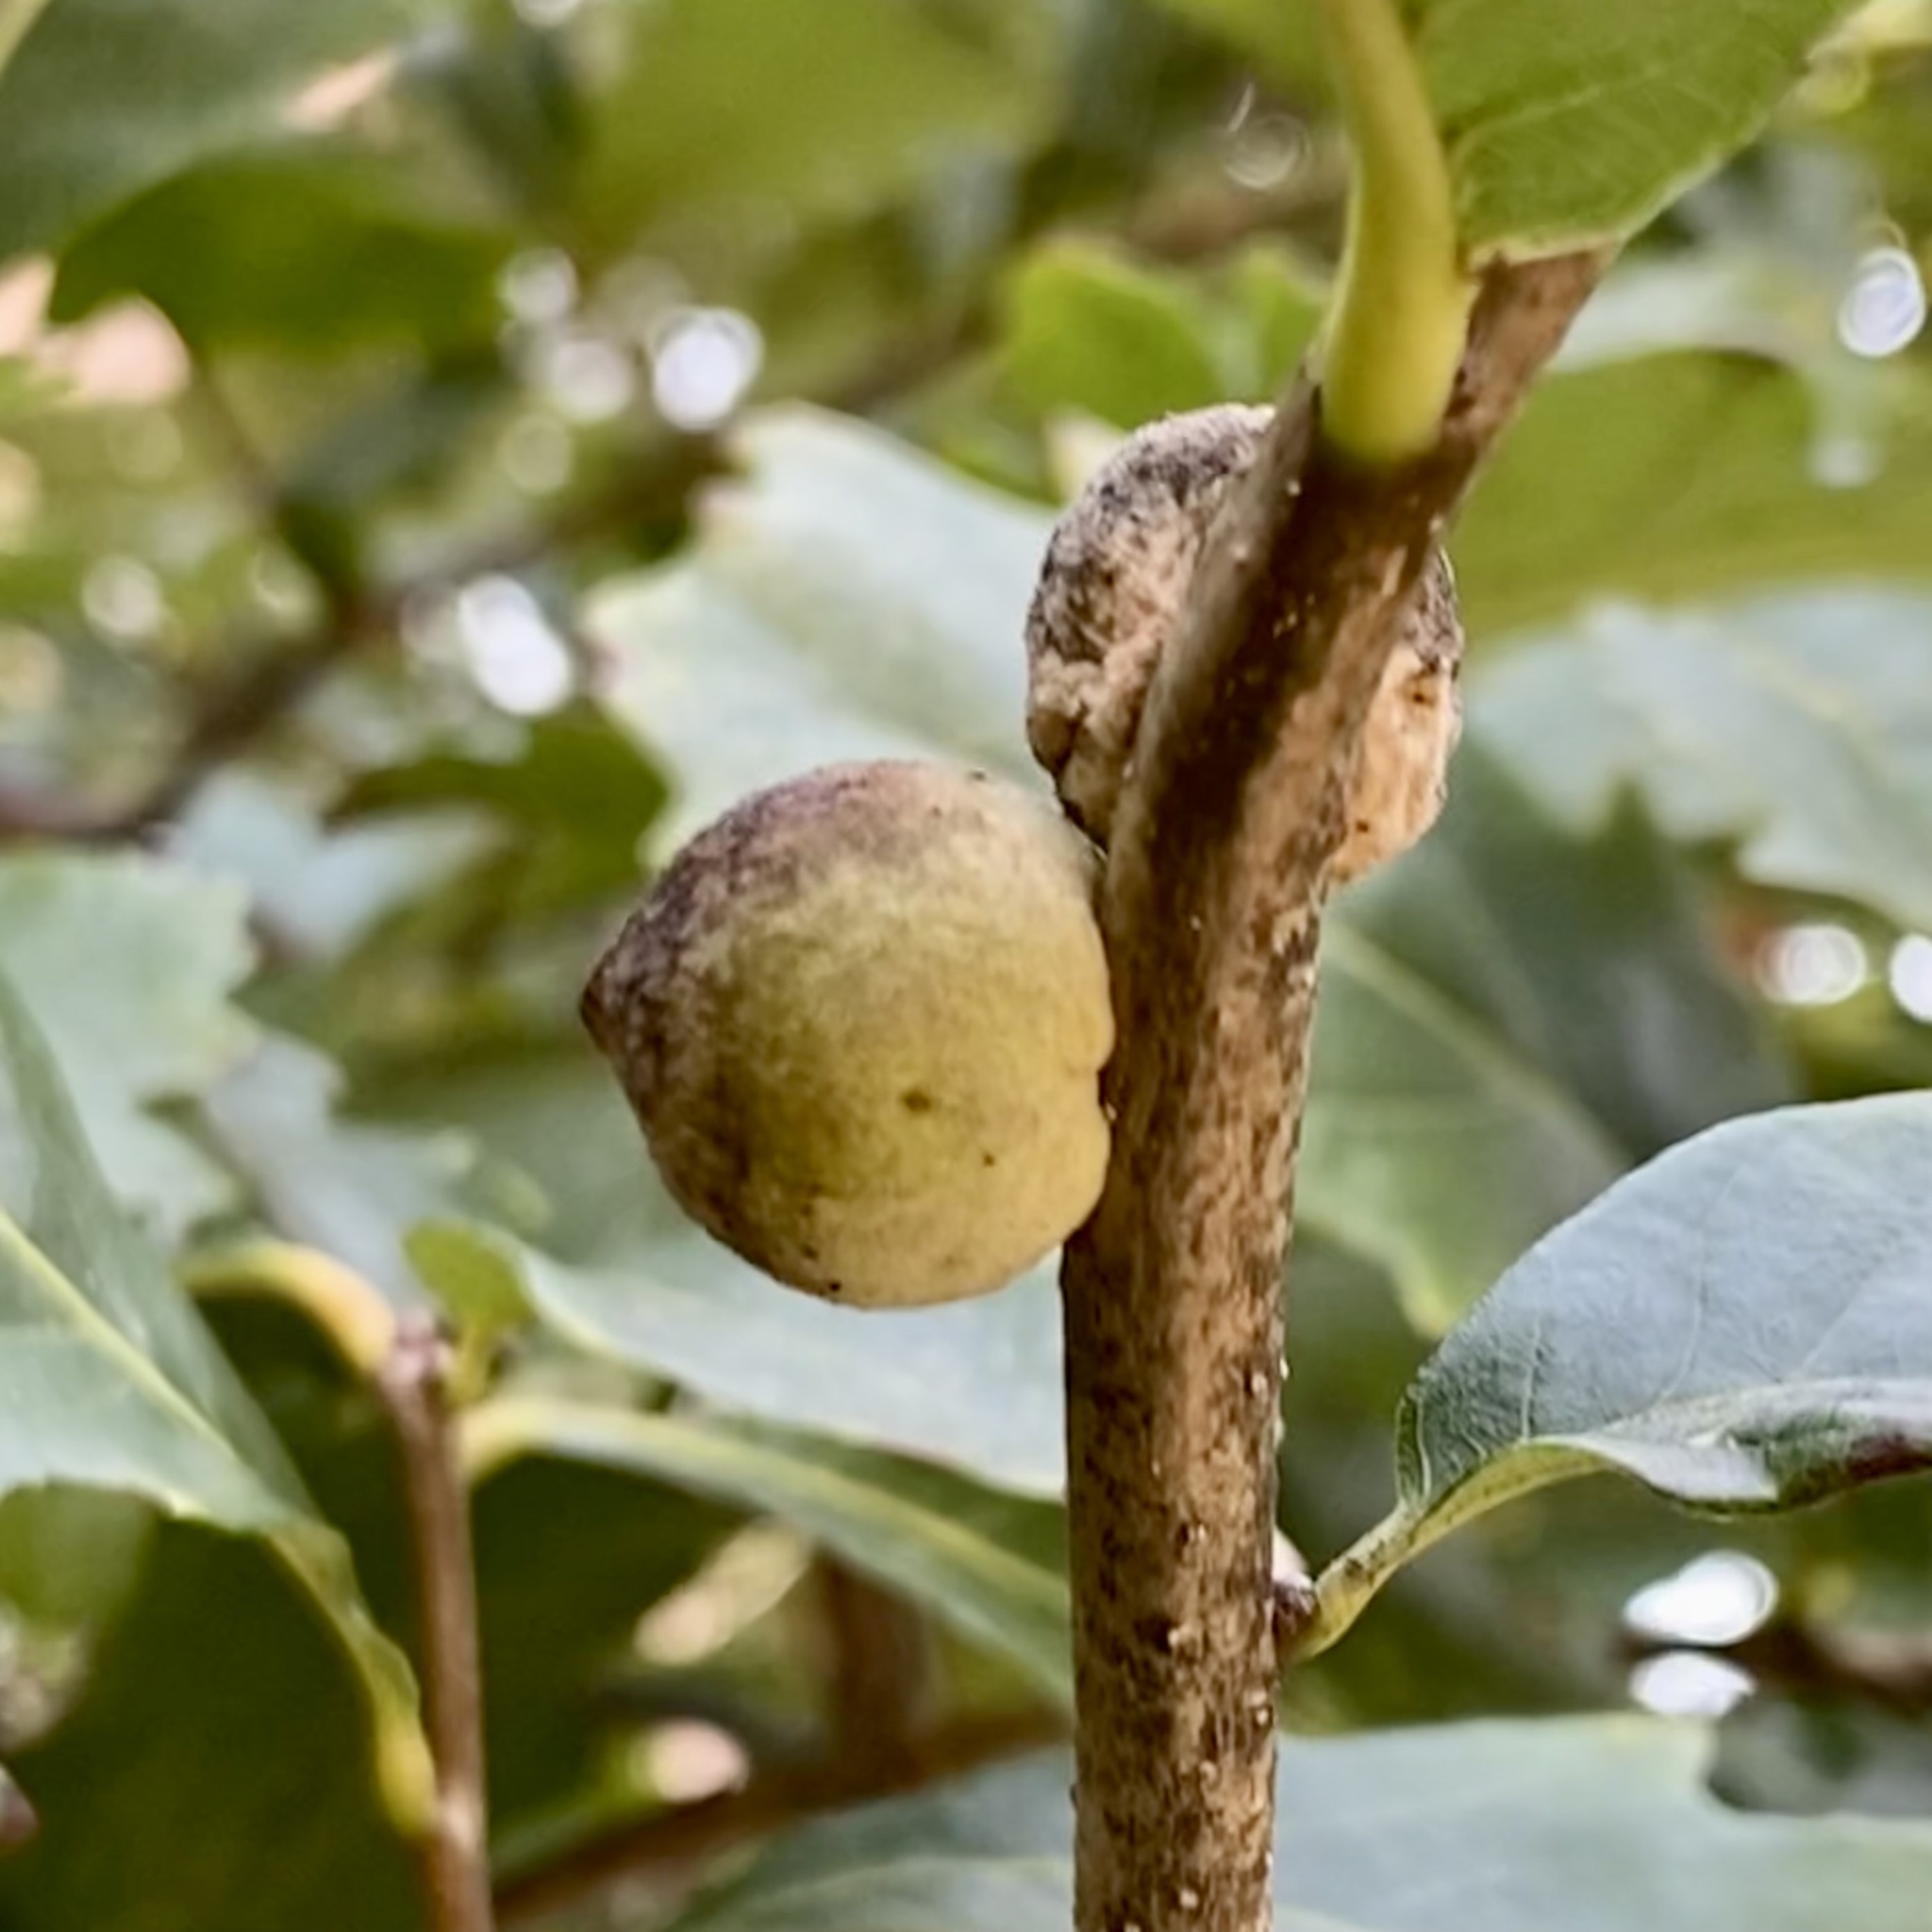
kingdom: Animalia
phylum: Arthropoda
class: Insecta
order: Hymenoptera
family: Cynipidae
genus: Disholcaspis
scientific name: Disholcaspis
